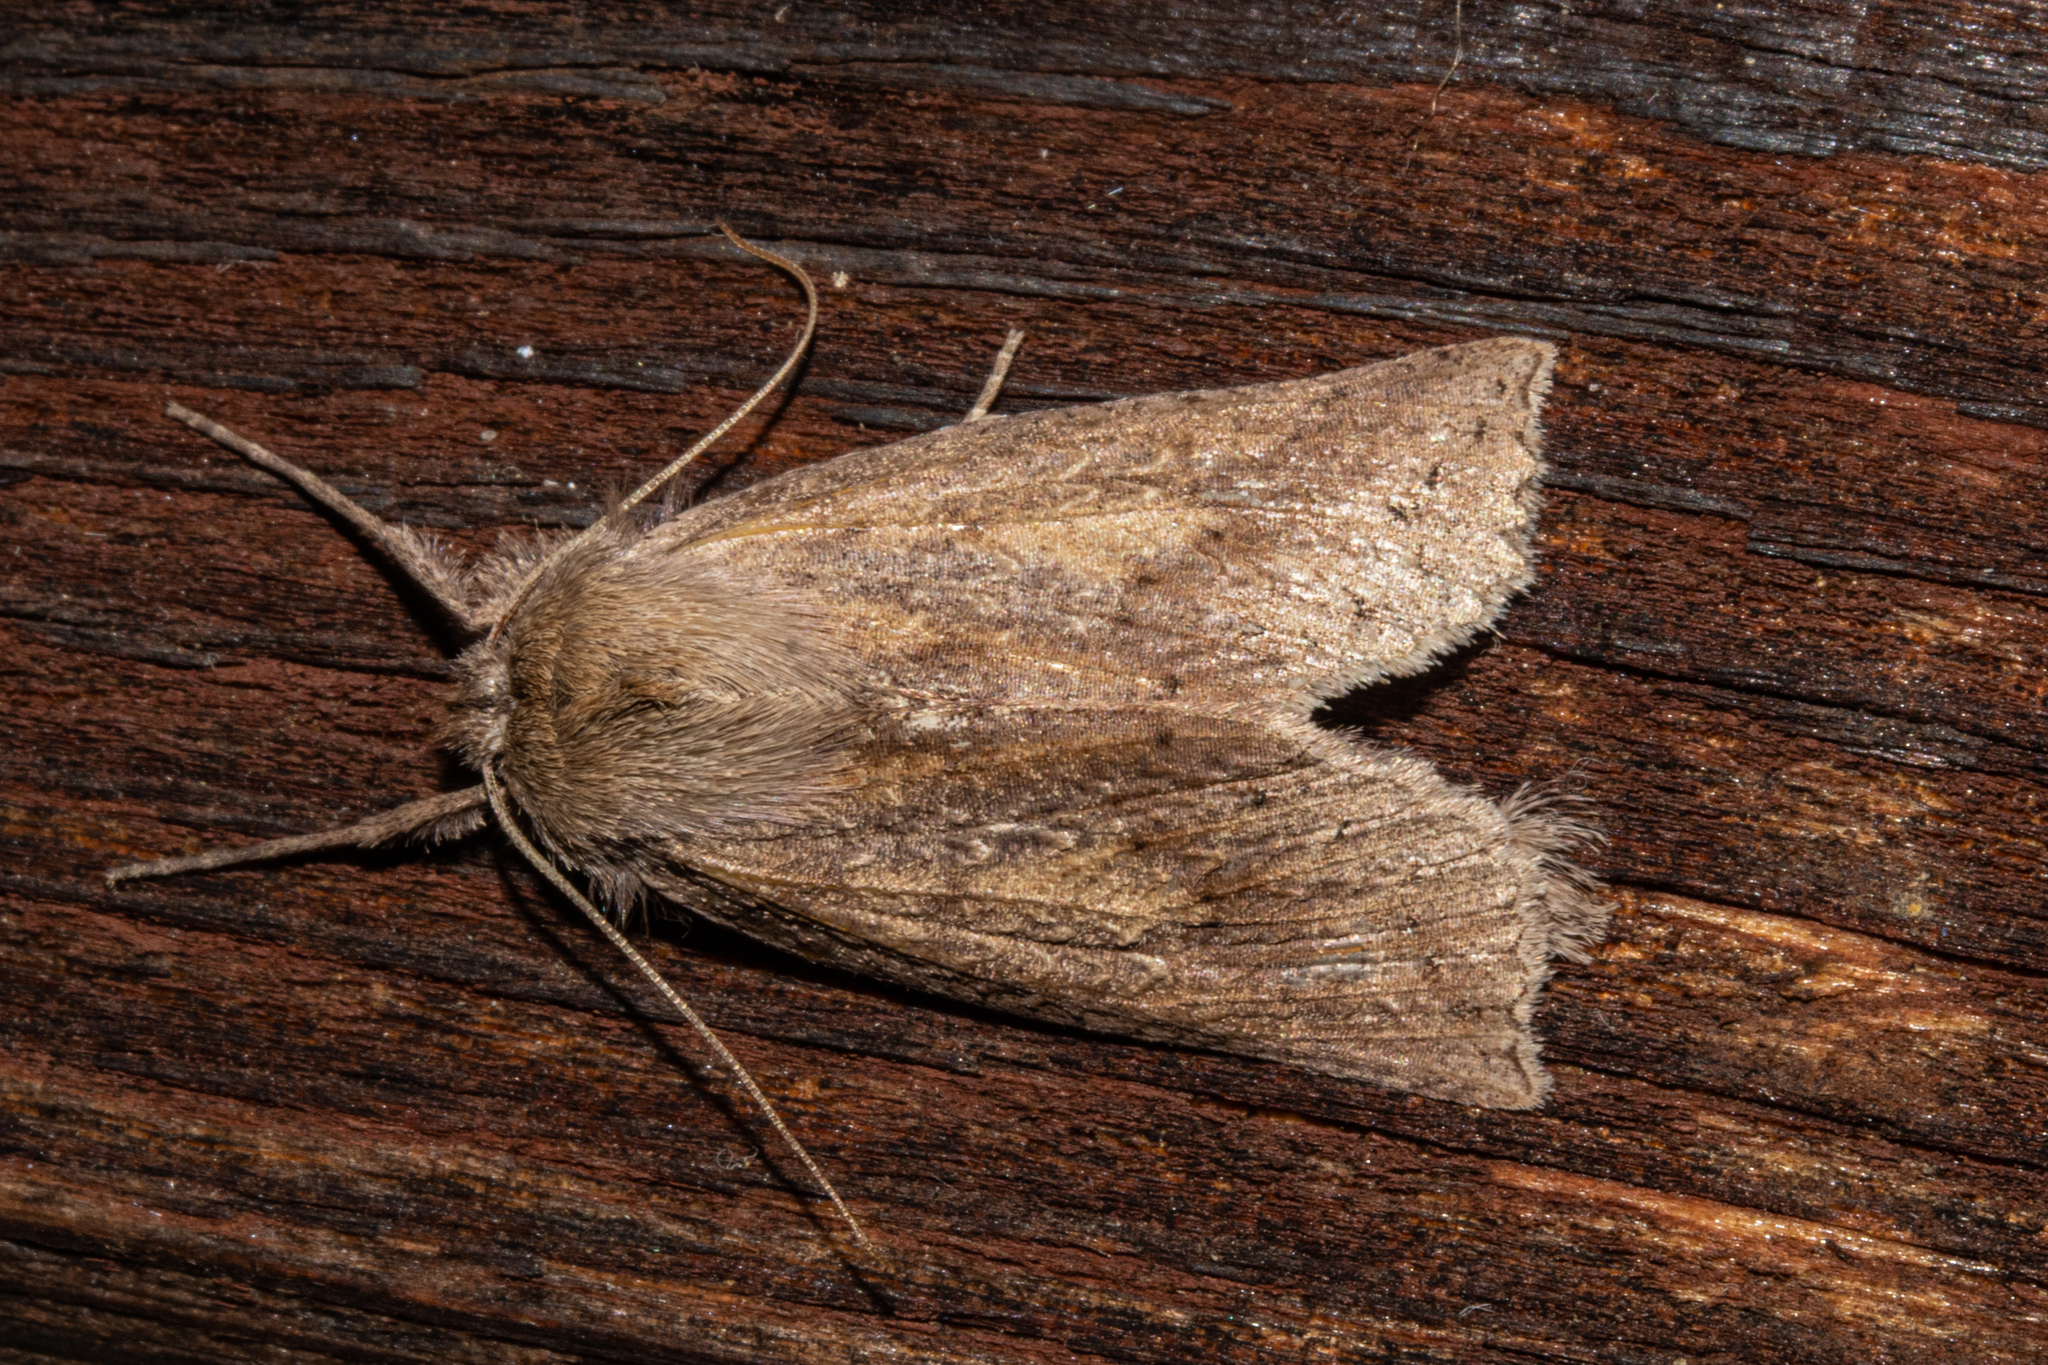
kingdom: Animalia
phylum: Arthropoda
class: Insecta
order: Lepidoptera
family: Geometridae
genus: Declana
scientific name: Declana leptomera
